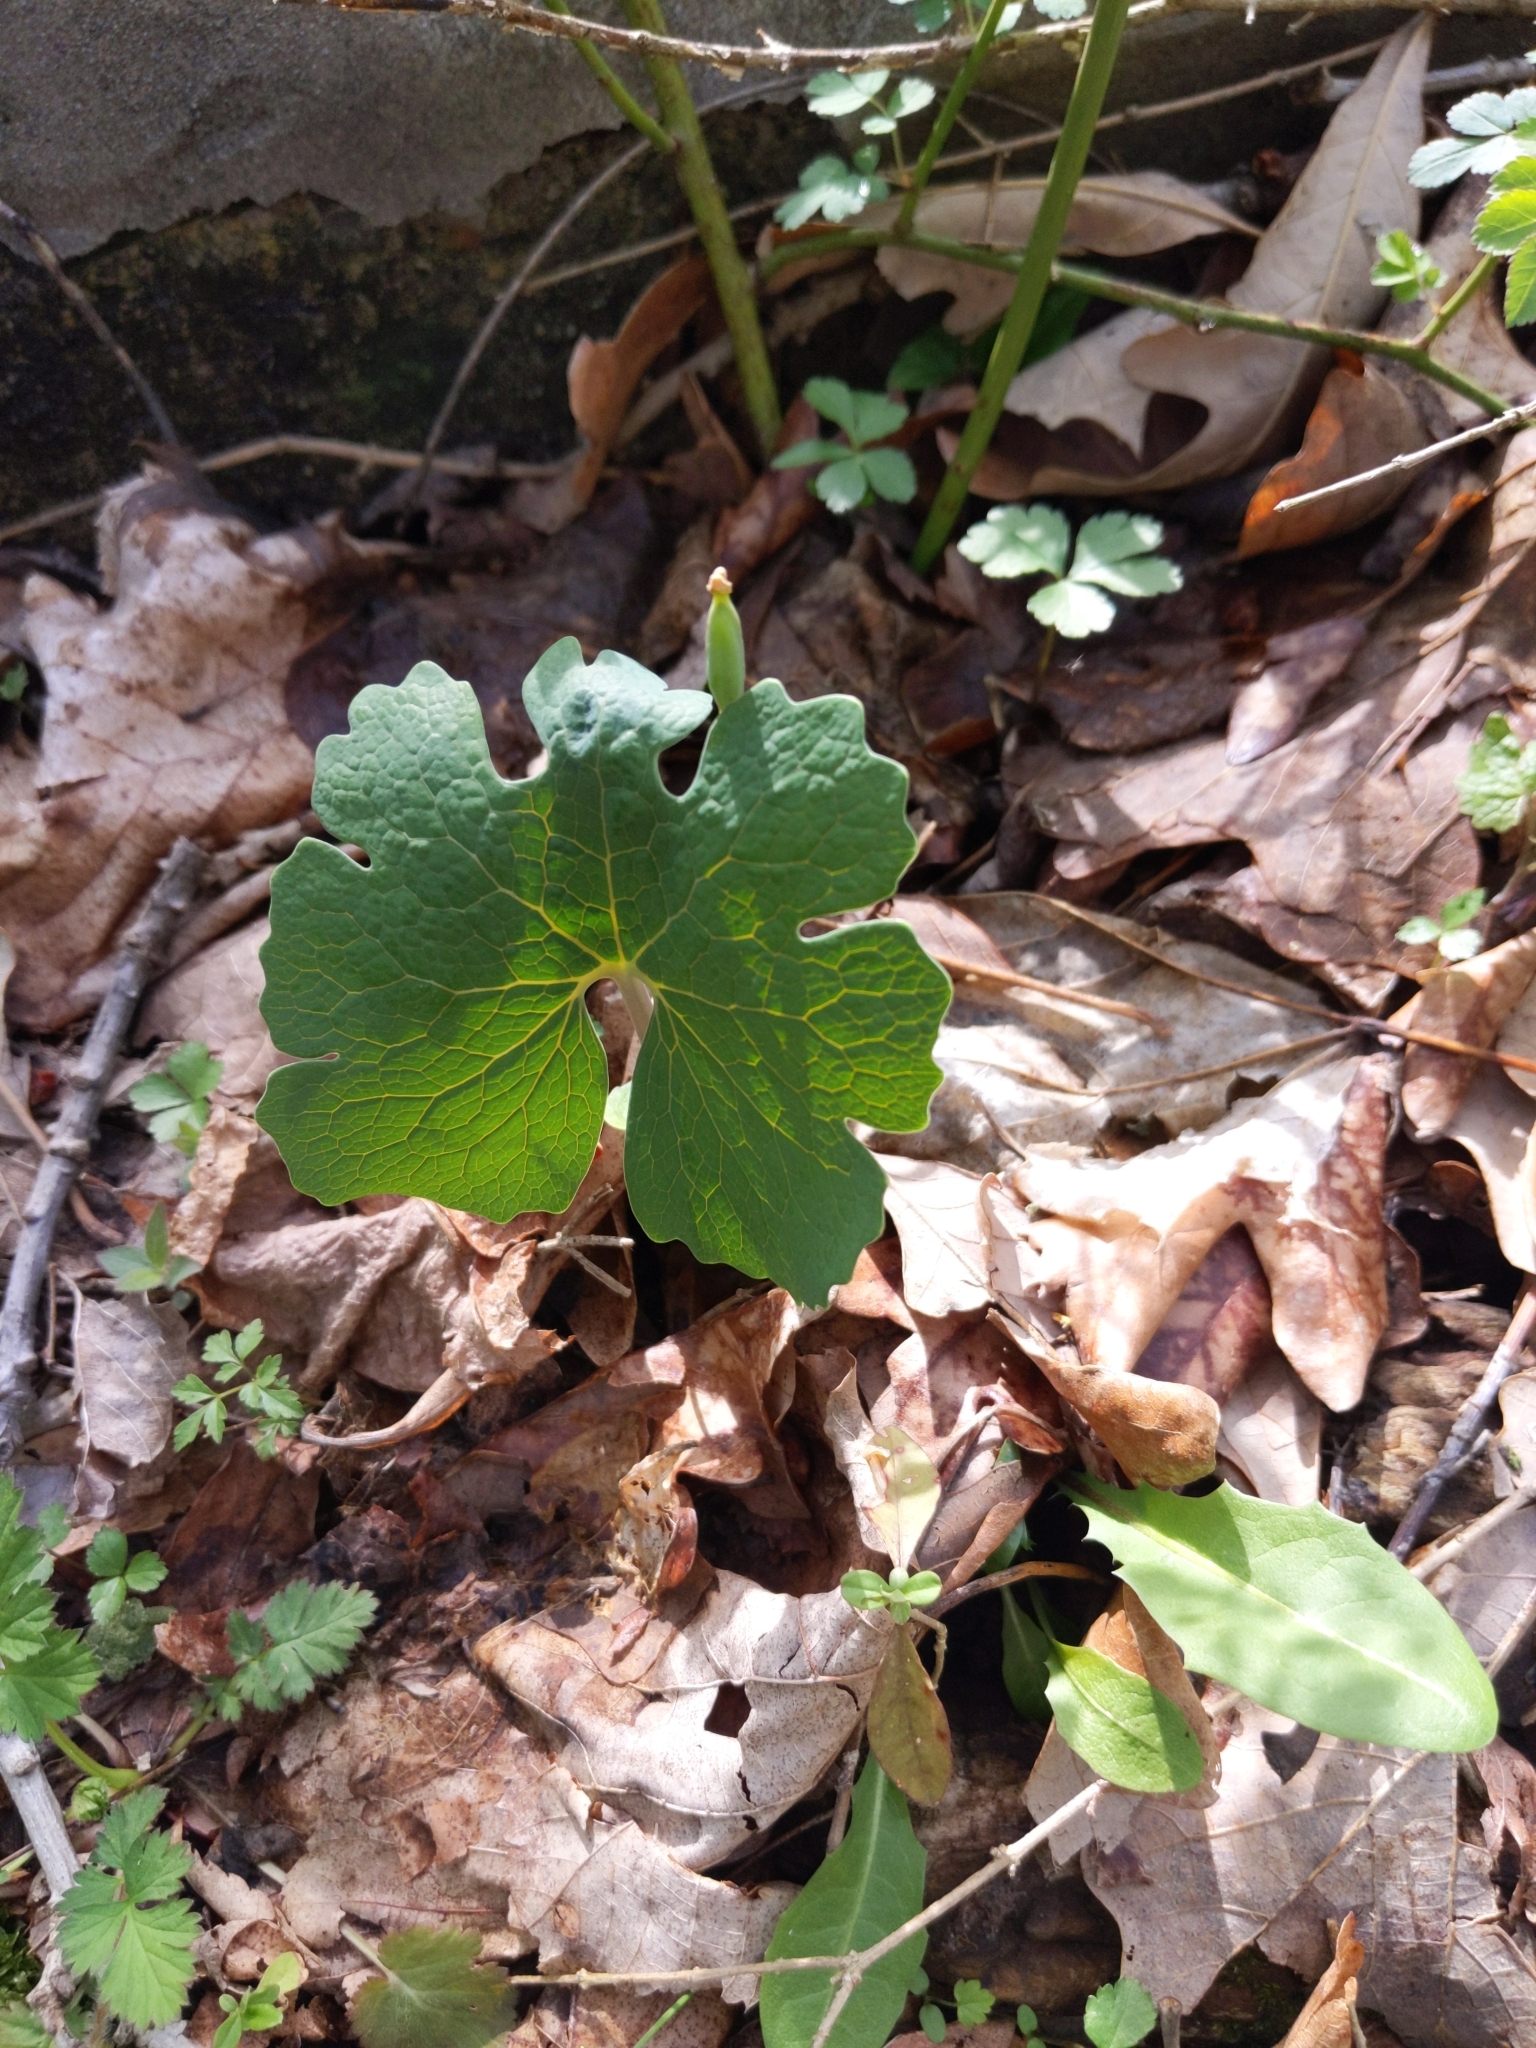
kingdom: Plantae
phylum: Tracheophyta
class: Magnoliopsida
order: Ranunculales
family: Papaveraceae
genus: Sanguinaria
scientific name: Sanguinaria canadensis
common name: Bloodroot
